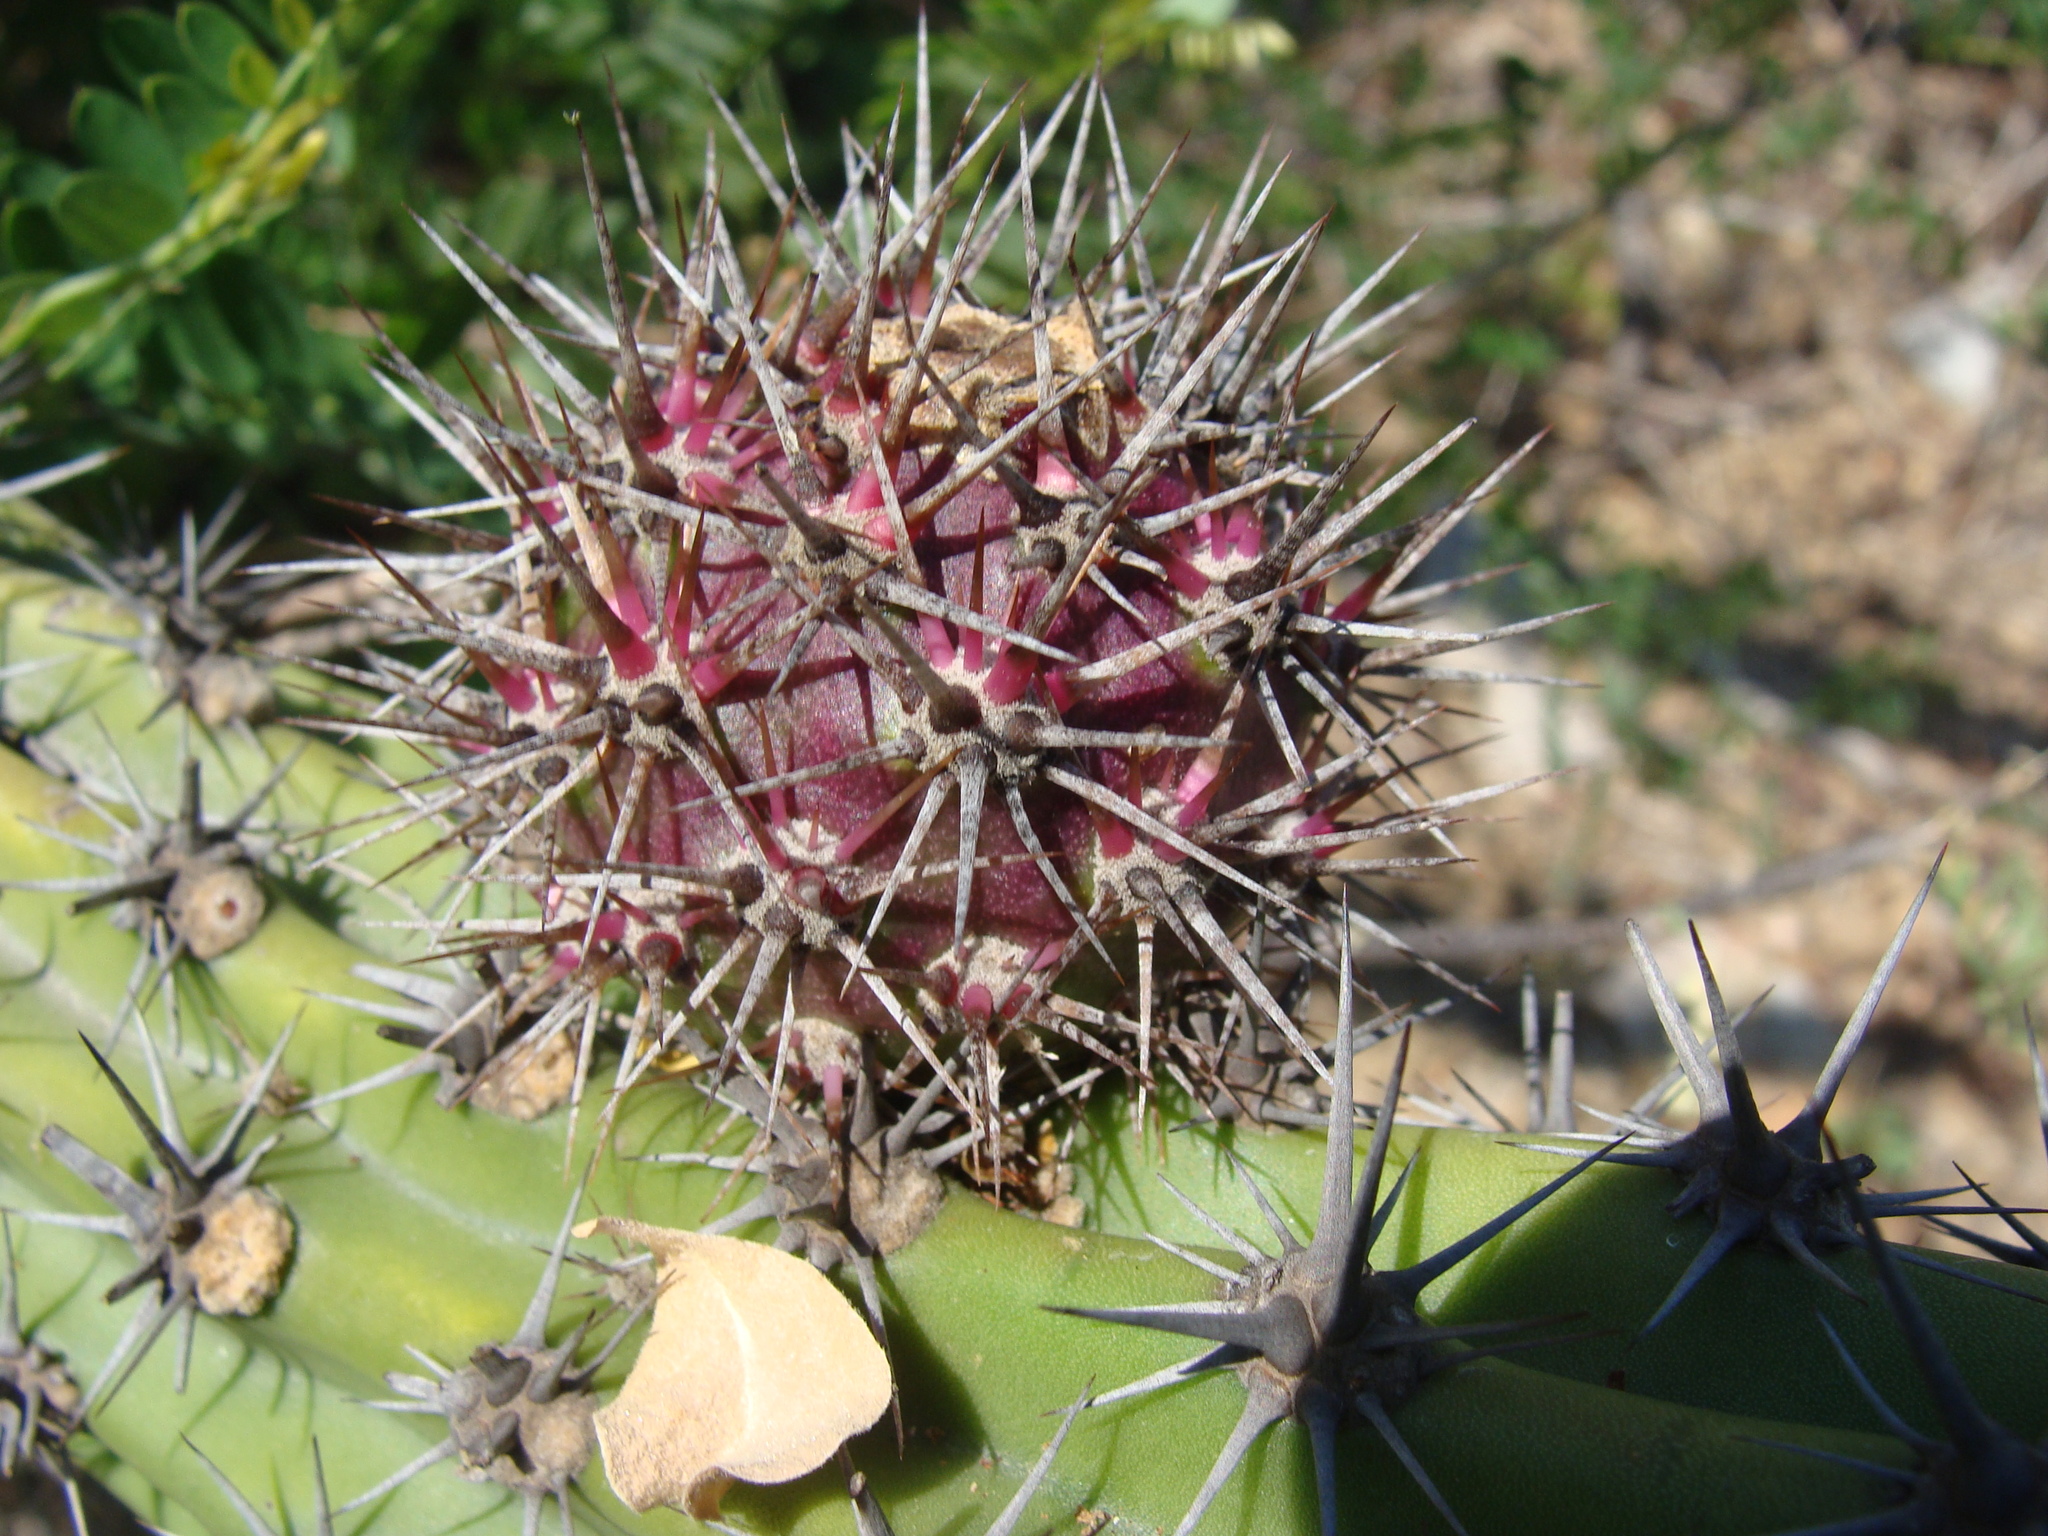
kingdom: Plantae
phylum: Tracheophyta
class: Magnoliopsida
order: Caryophyllales
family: Cactaceae
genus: Stenocereus
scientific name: Stenocereus gummosus
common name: Dagger cactus
